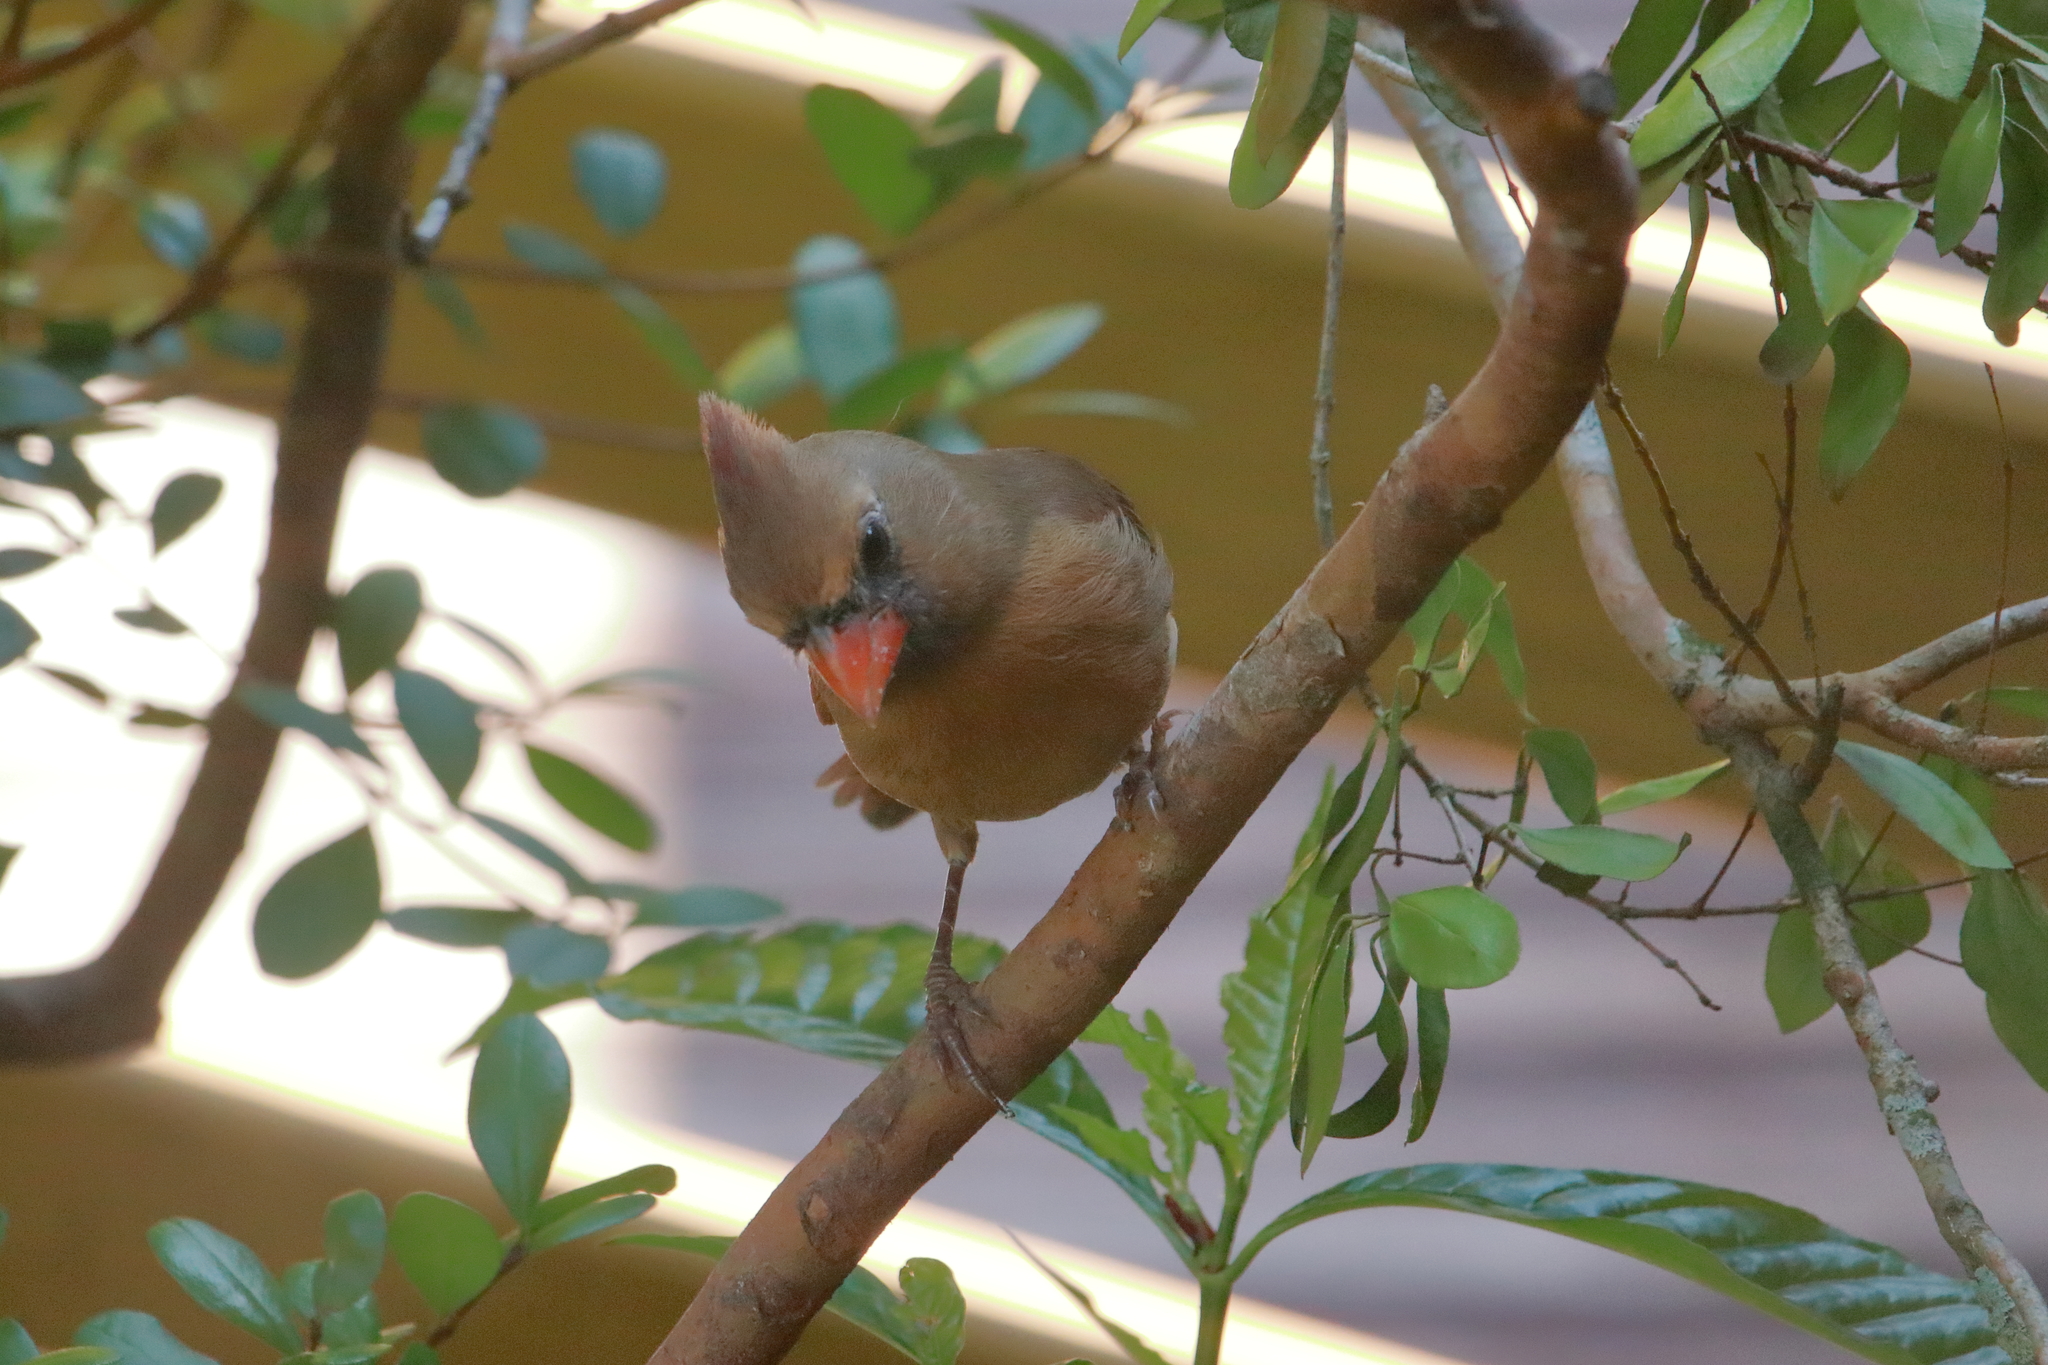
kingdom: Animalia
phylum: Chordata
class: Aves
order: Passeriformes
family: Cardinalidae
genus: Cardinalis
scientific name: Cardinalis cardinalis
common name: Northern cardinal
